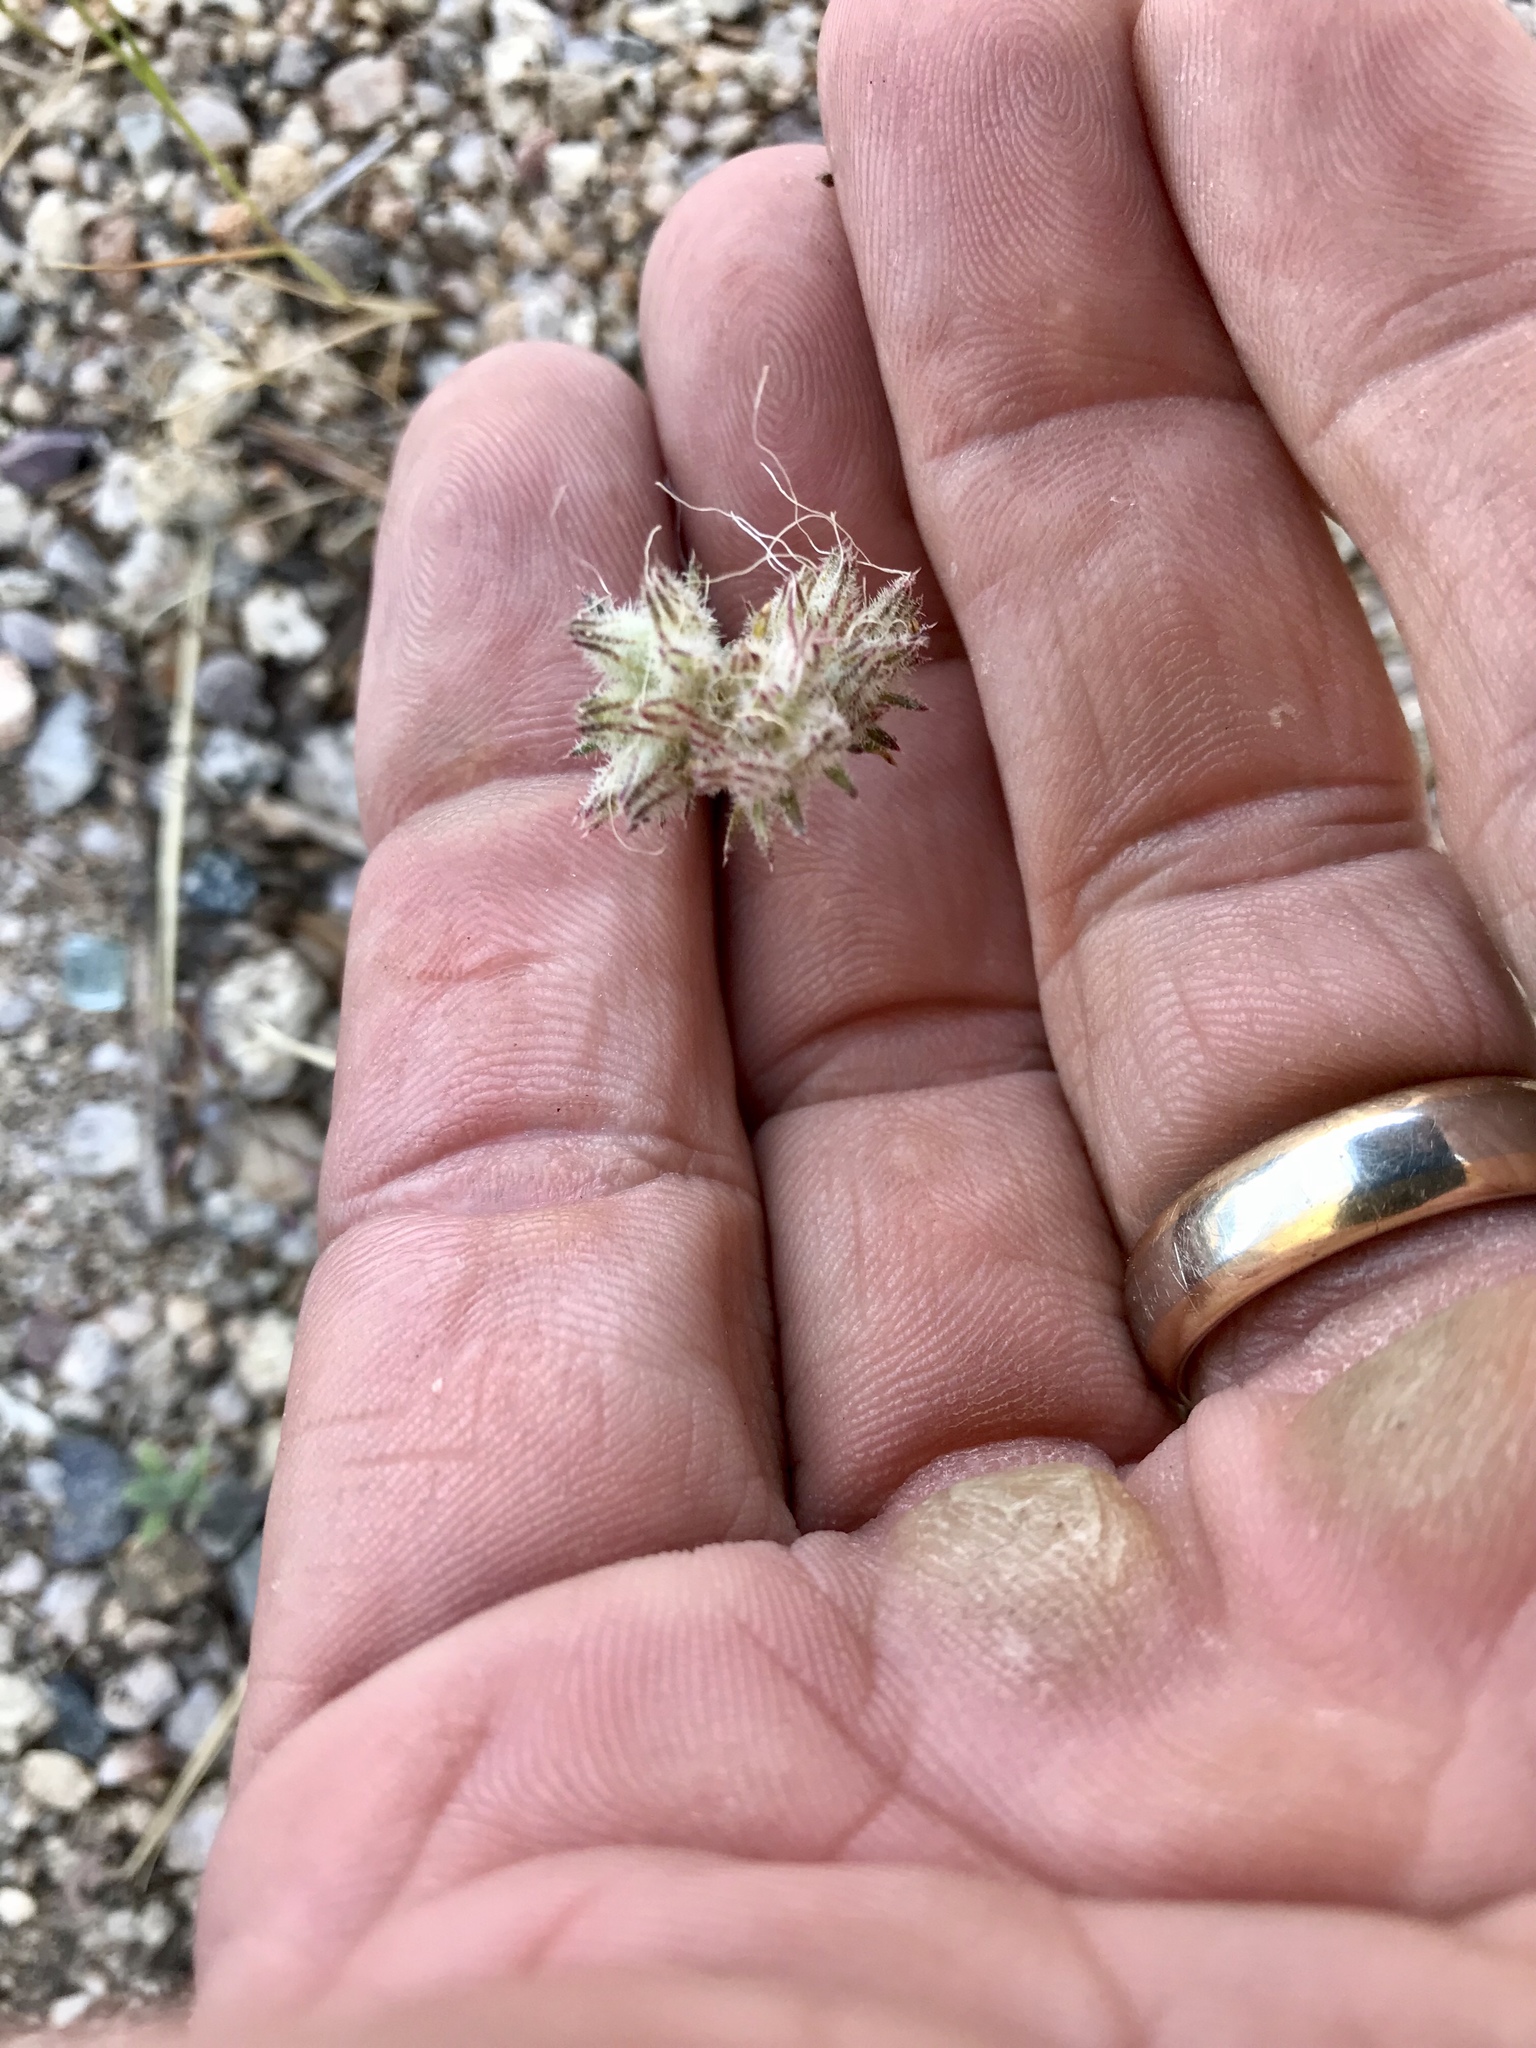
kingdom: Plantae
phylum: Tracheophyta
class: Magnoliopsida
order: Ericales
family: Polemoniaceae
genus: Ipomopsis
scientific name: Ipomopsis multiflora
